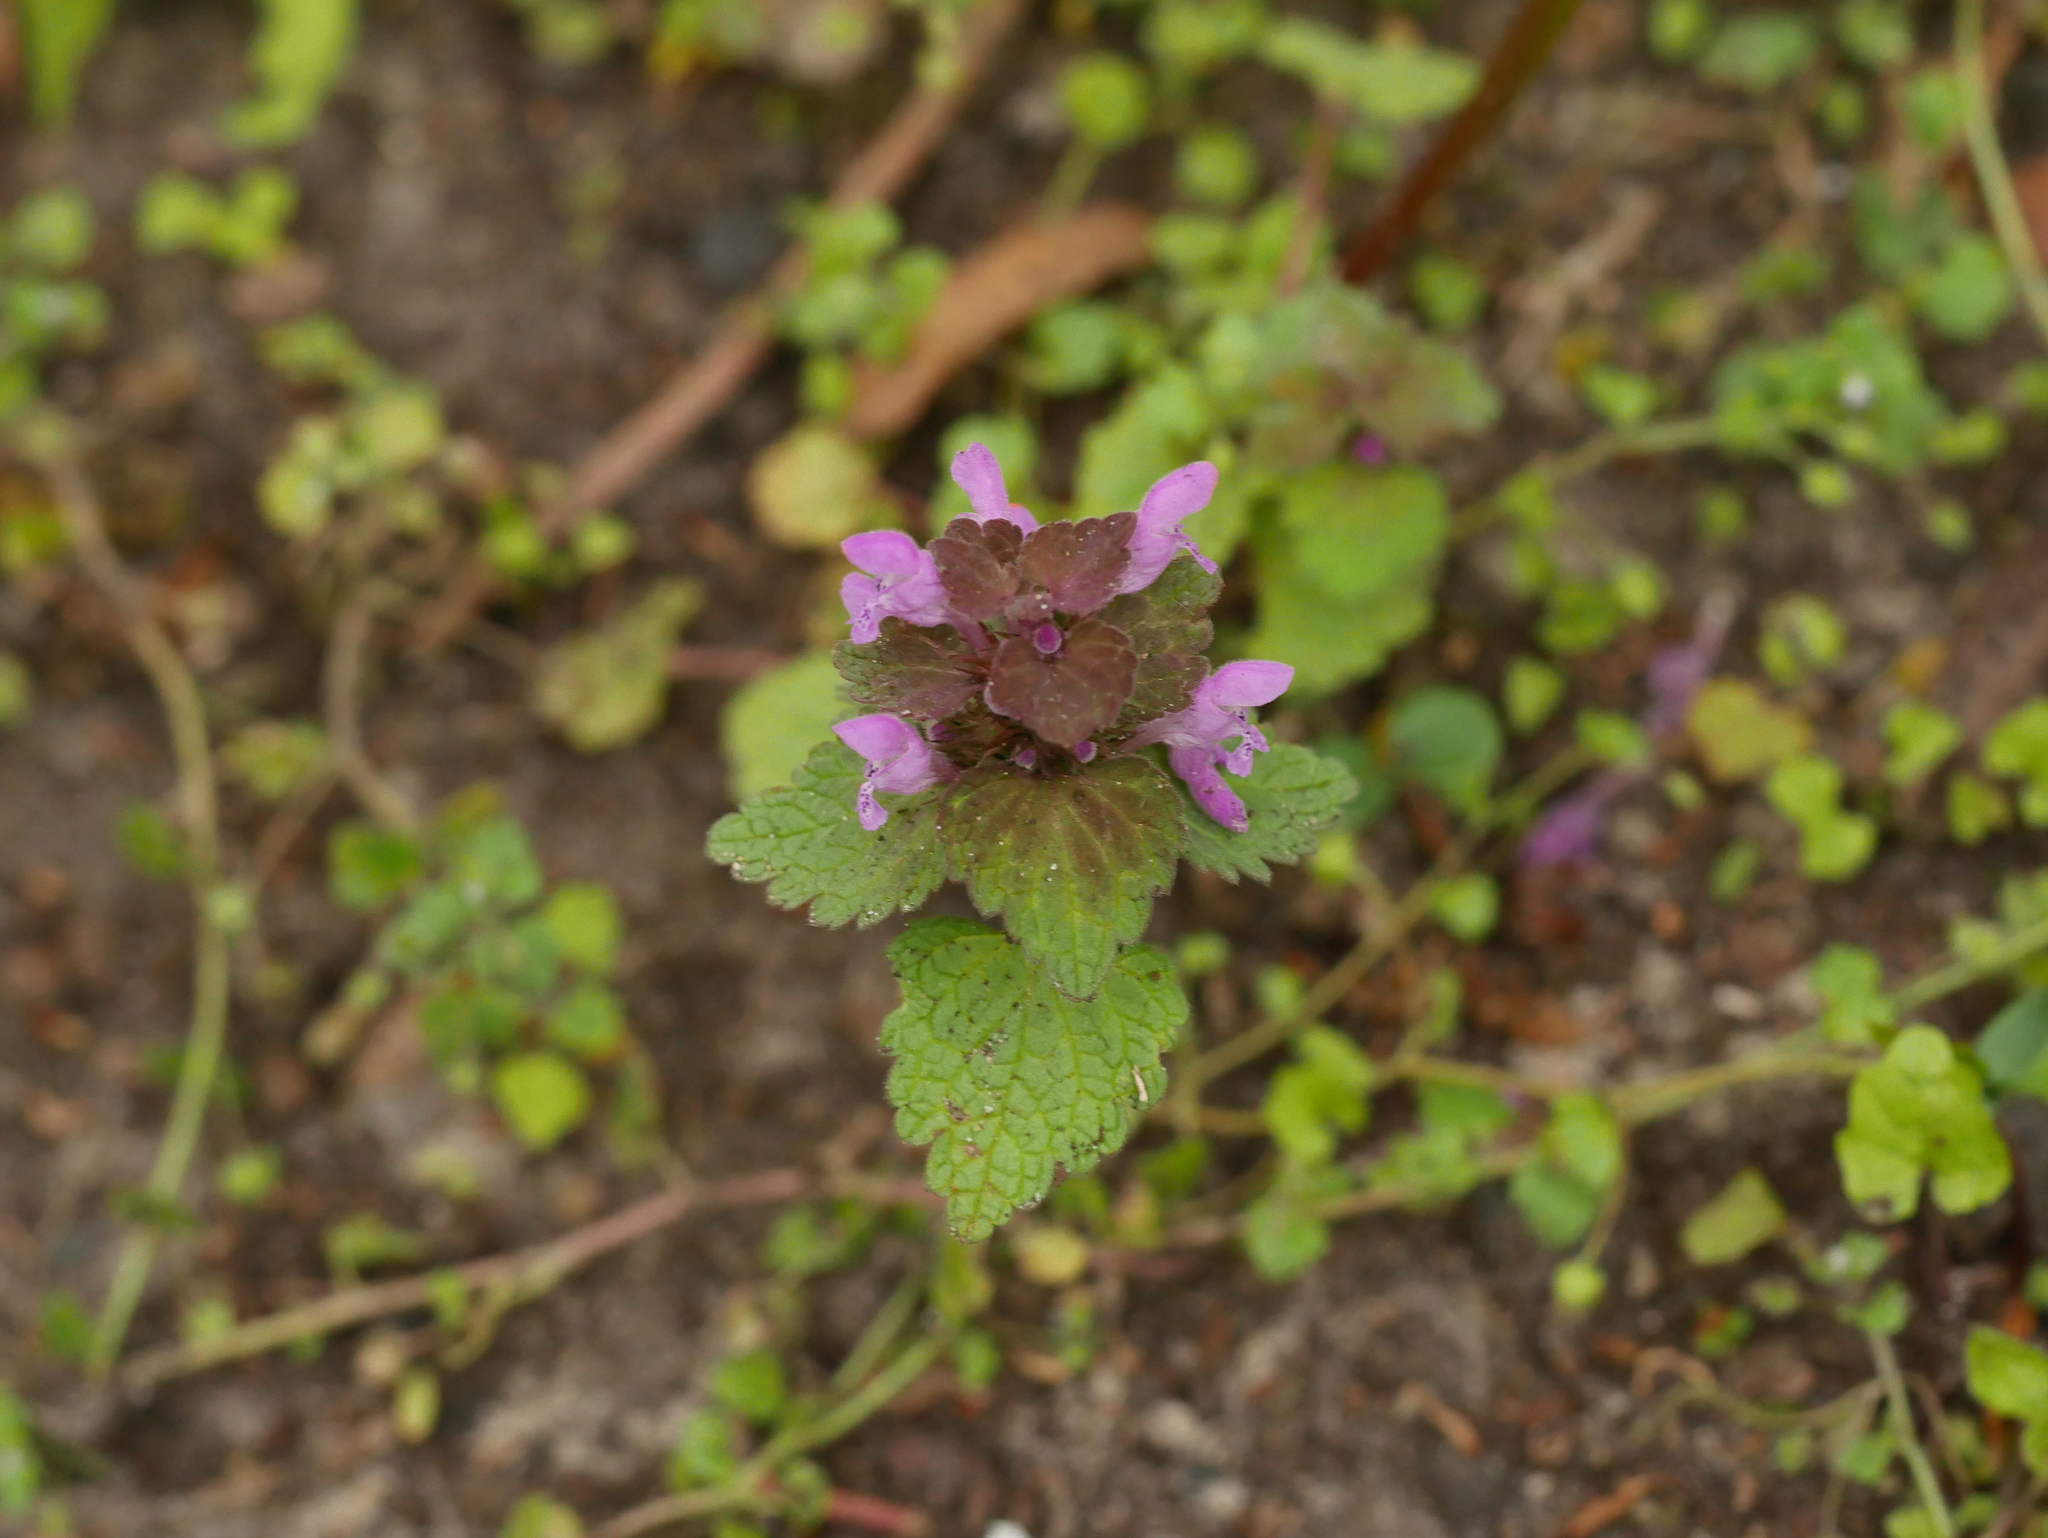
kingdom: Plantae
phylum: Tracheophyta
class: Magnoliopsida
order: Lamiales
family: Lamiaceae
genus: Lamium
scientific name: Lamium purpureum
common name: Red dead-nettle
